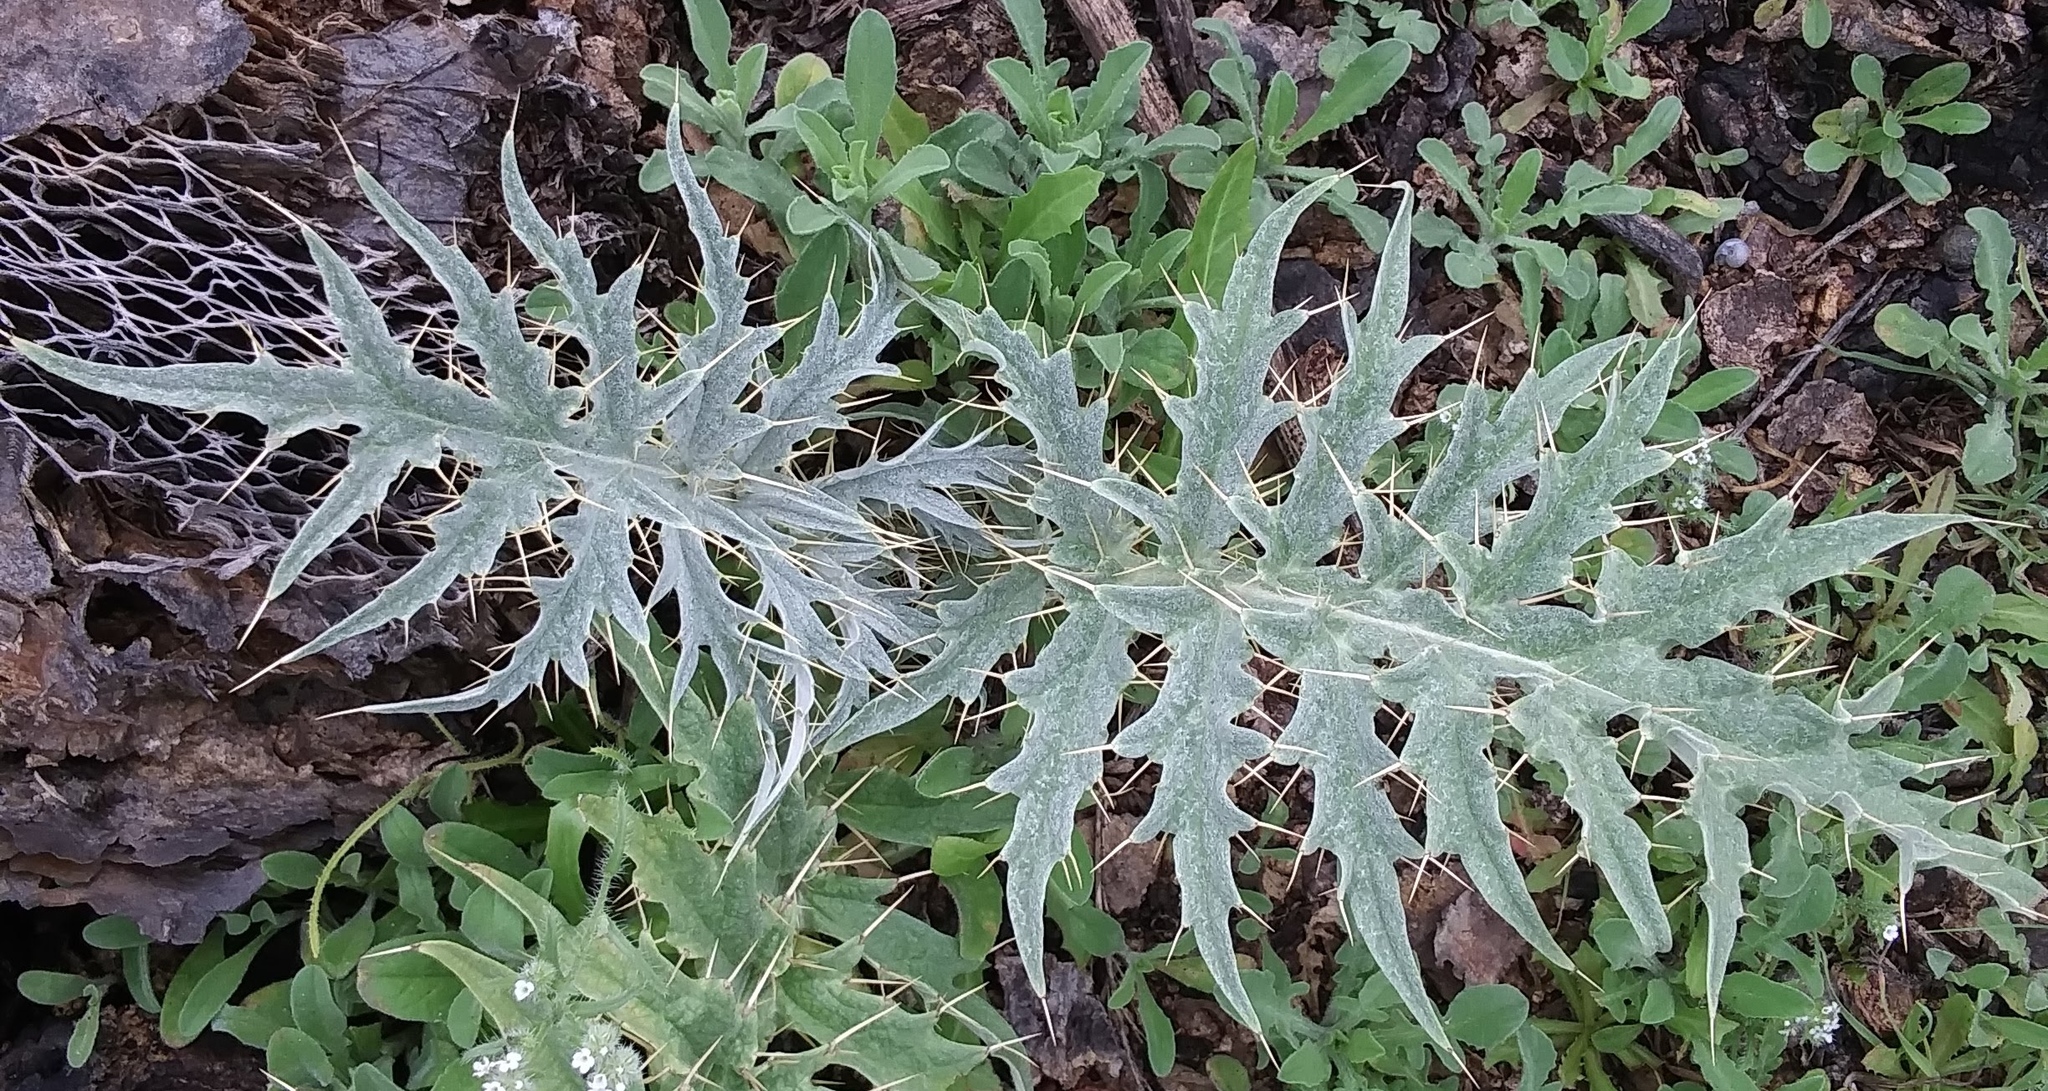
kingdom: Plantae
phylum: Tracheophyta
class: Magnoliopsida
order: Asterales
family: Asteraceae
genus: Cynara
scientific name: Cynara cardunculus
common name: Globe artichoke
